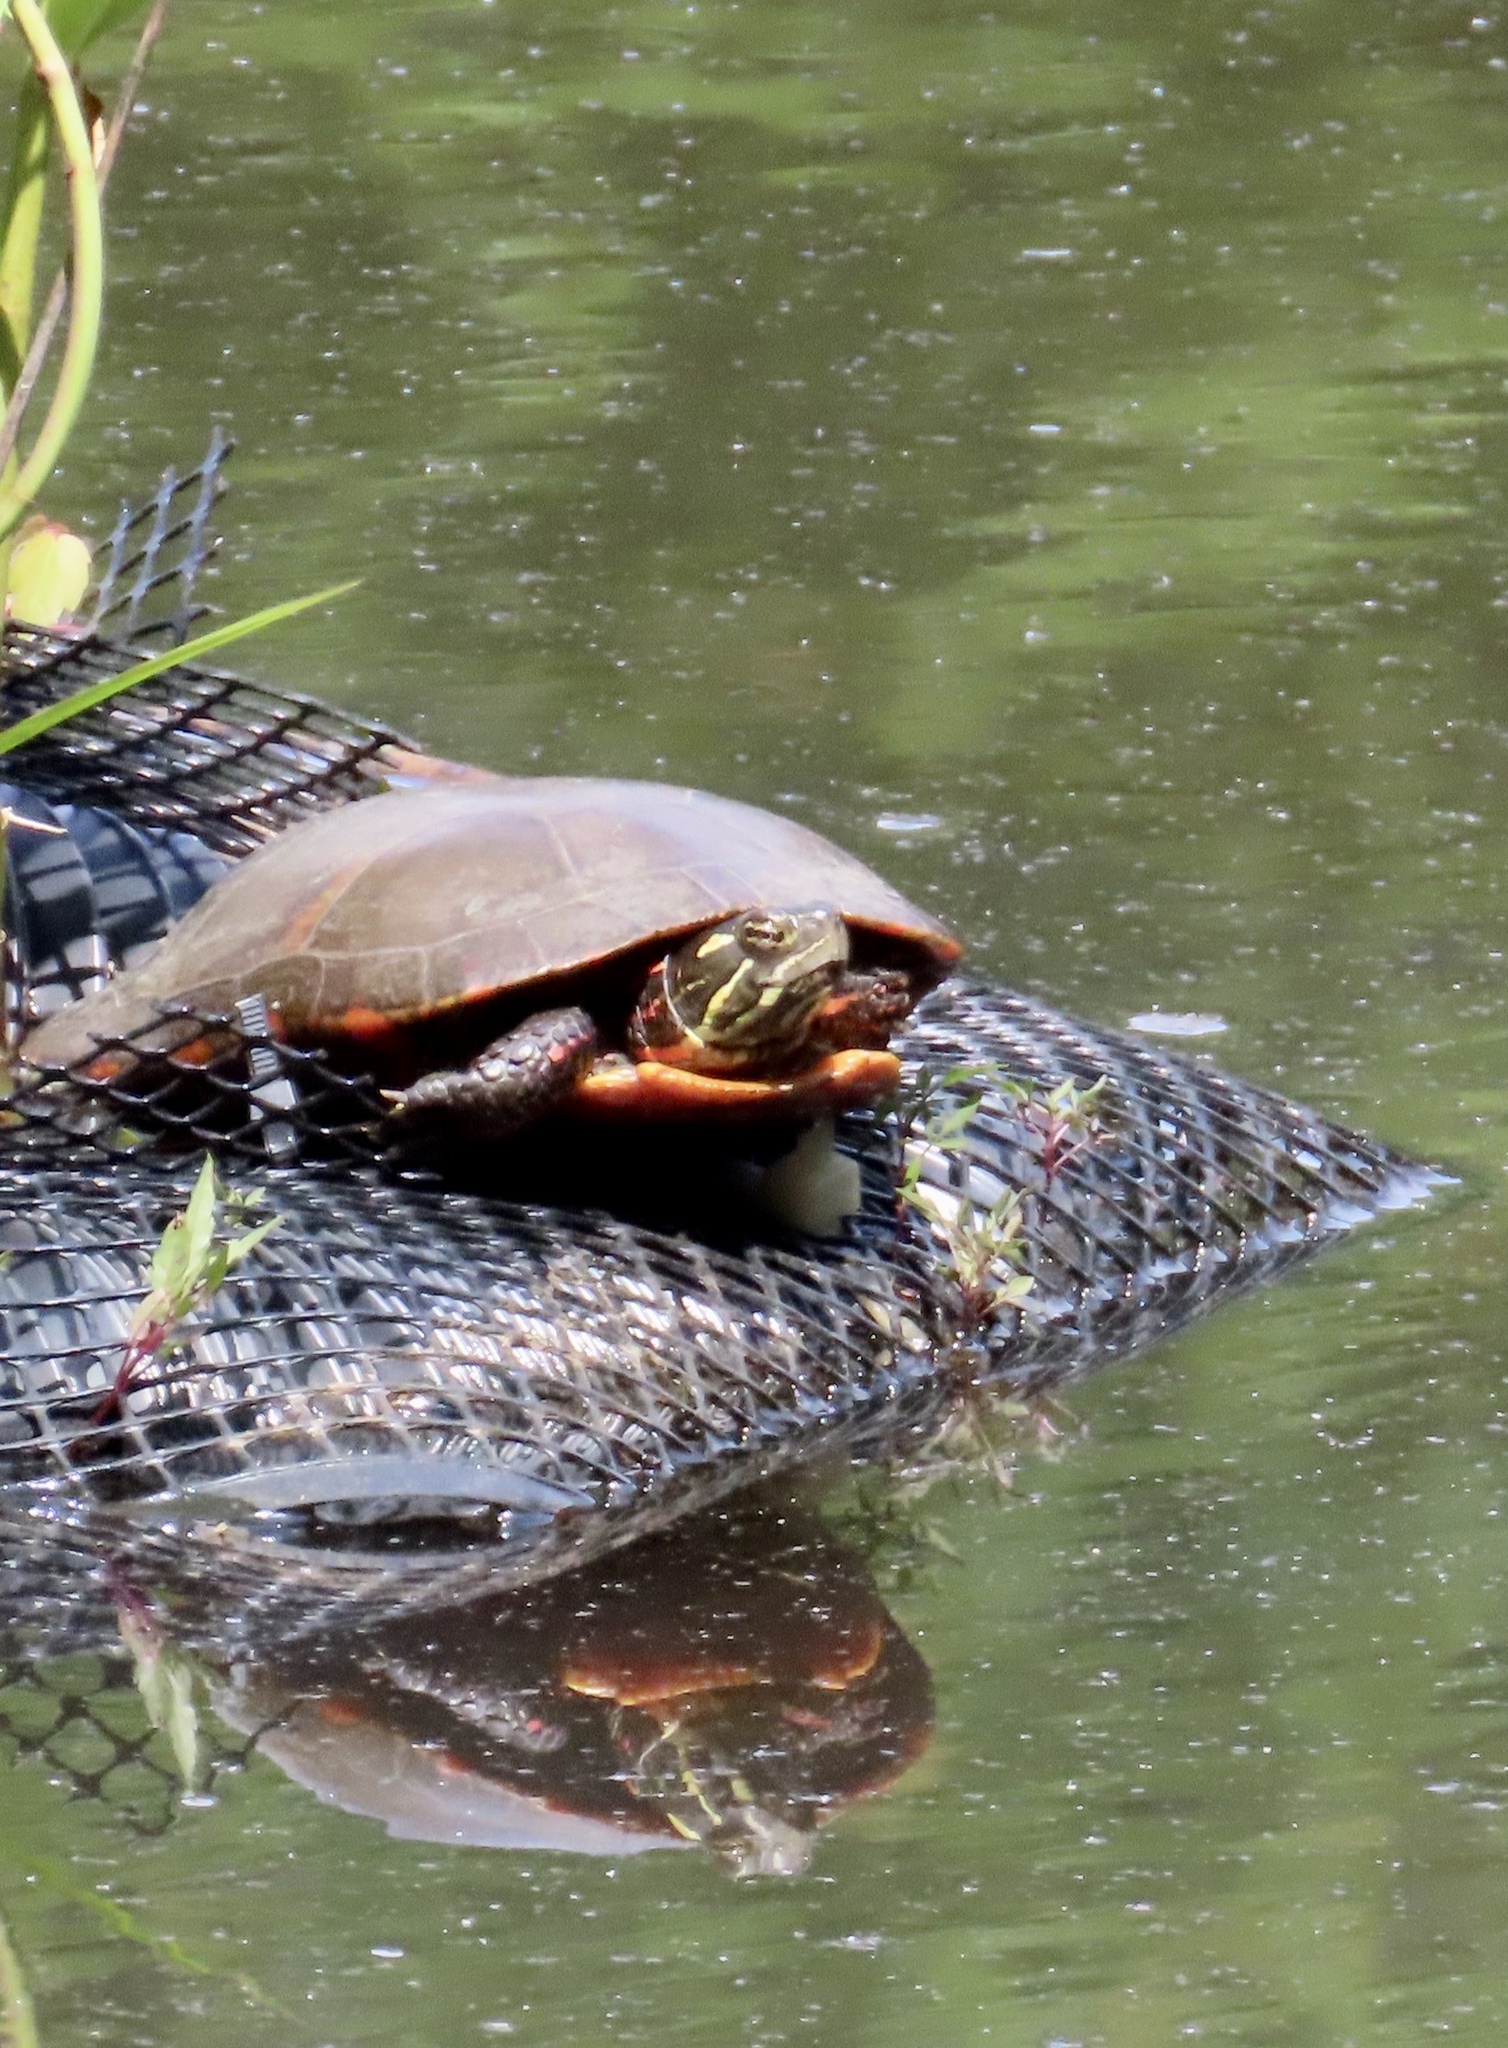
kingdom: Animalia
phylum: Chordata
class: Testudines
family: Emydidae
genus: Chrysemys
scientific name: Chrysemys picta
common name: Painted turtle
